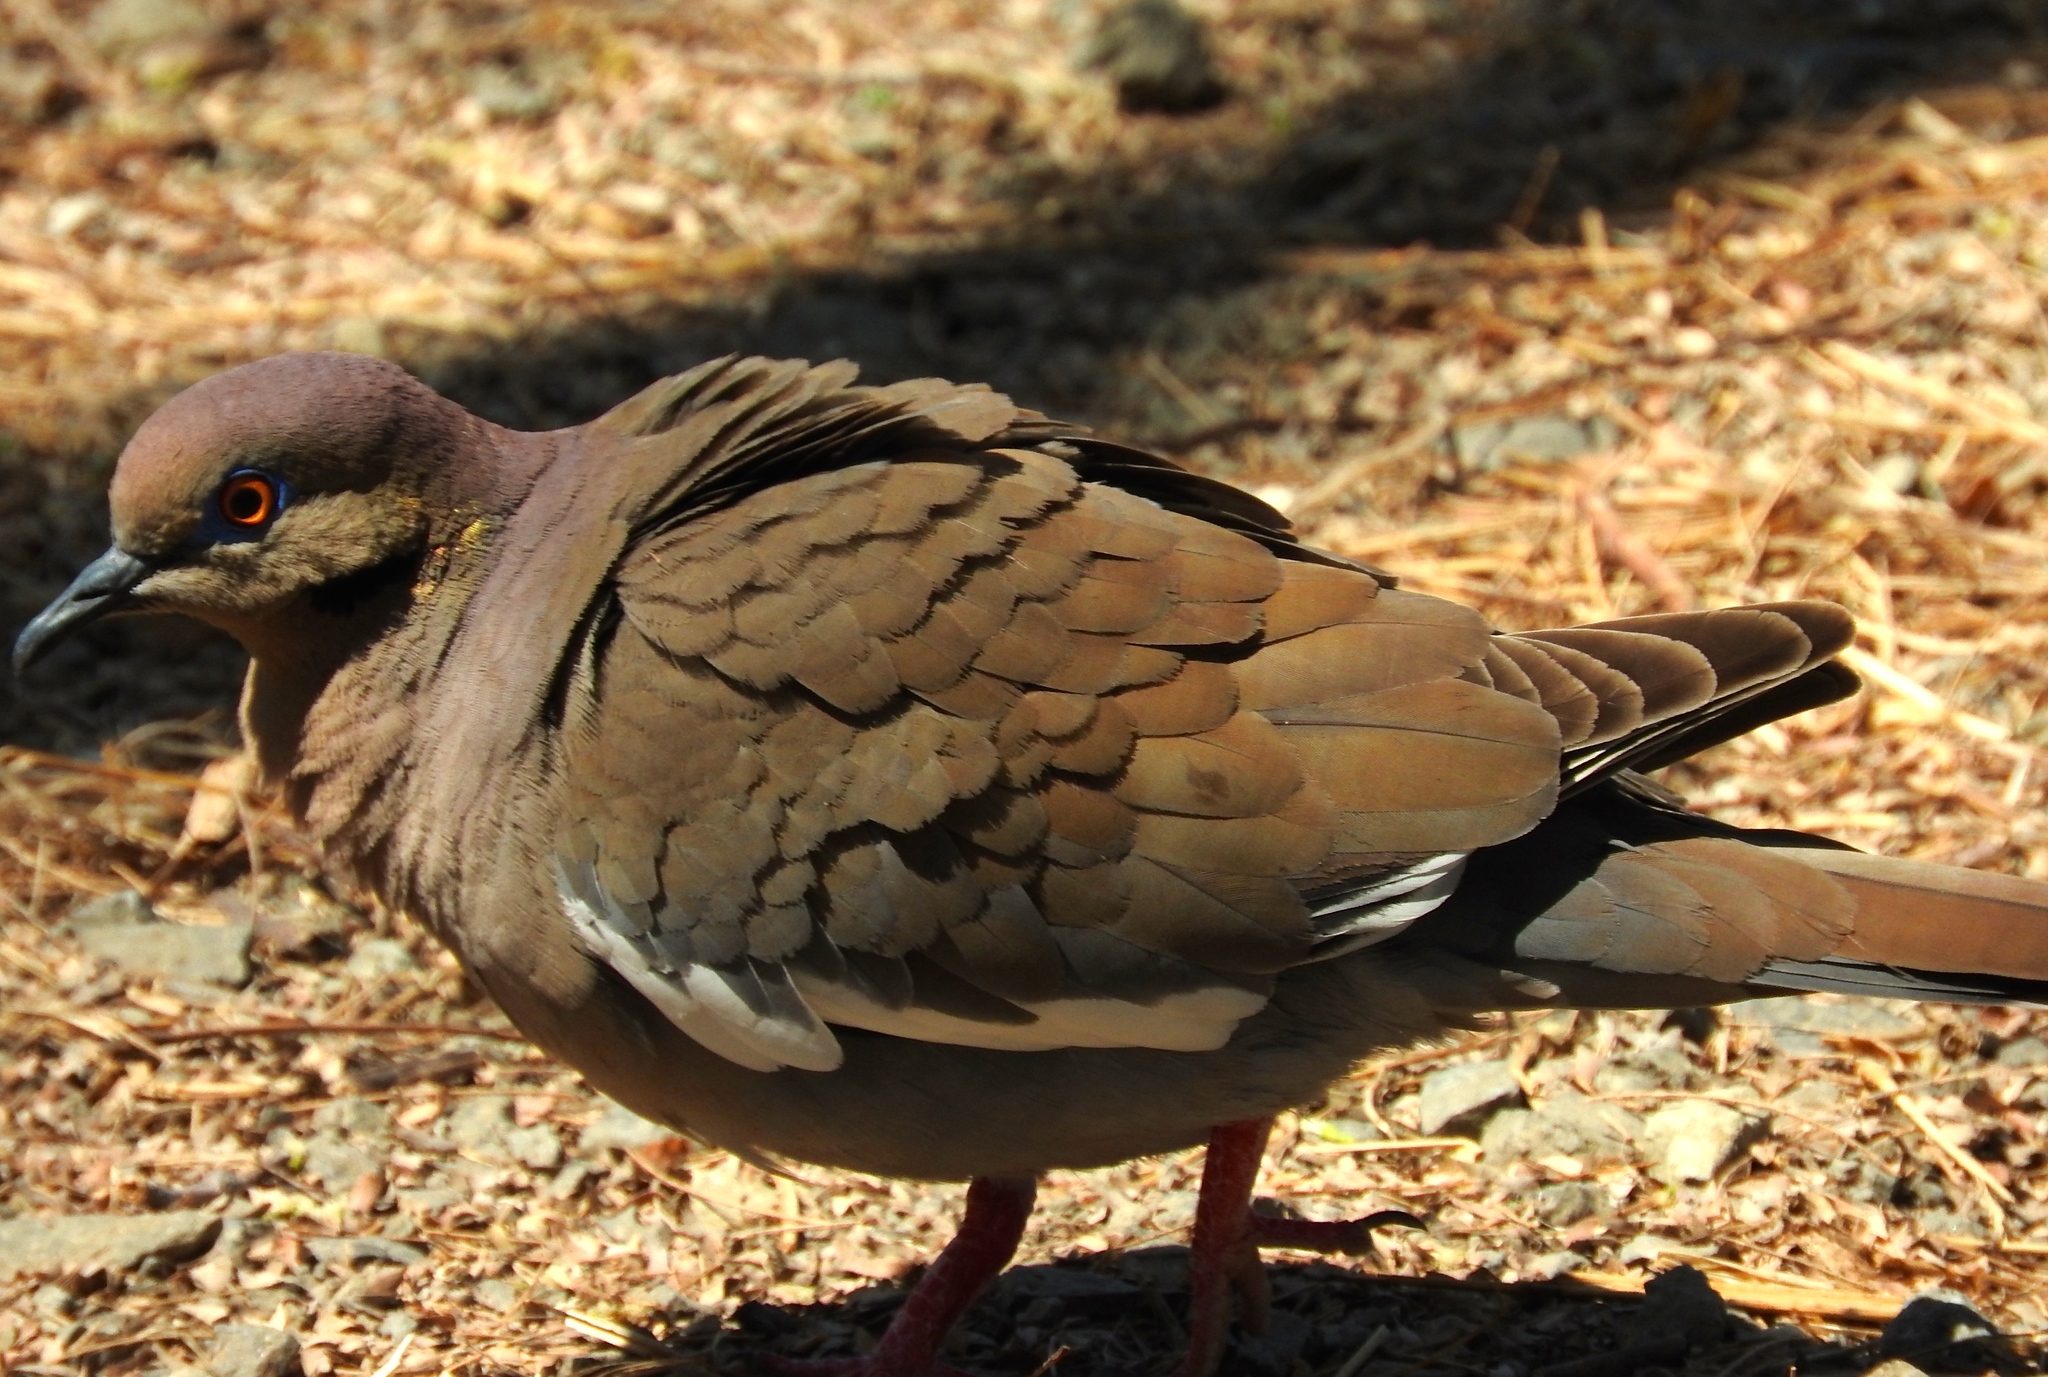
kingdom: Animalia
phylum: Chordata
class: Aves
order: Columbiformes
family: Columbidae
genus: Zenaida
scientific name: Zenaida asiatica
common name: White-winged dove
